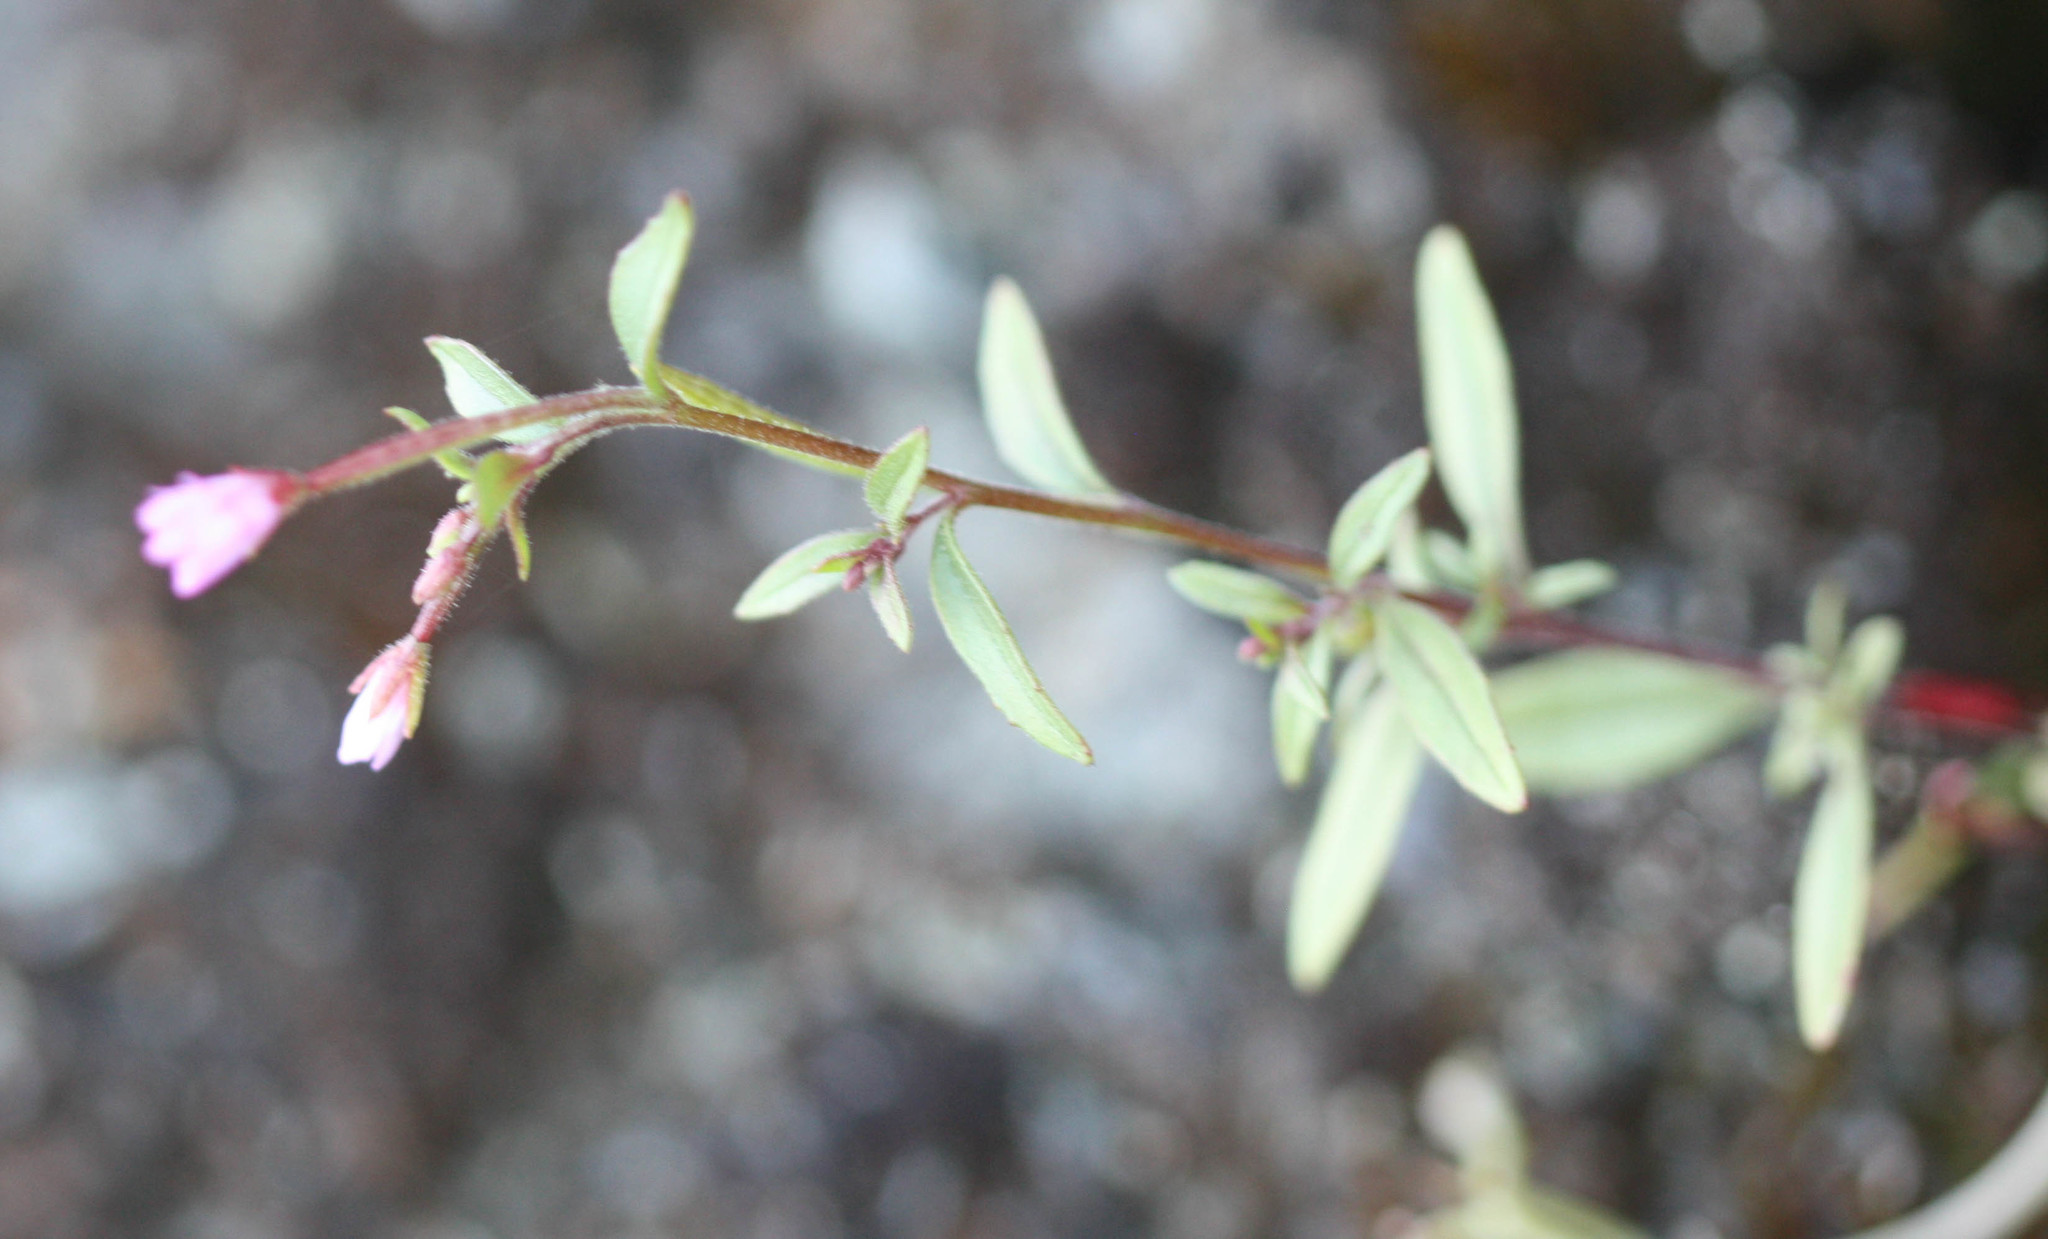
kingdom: Plantae
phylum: Tracheophyta
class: Magnoliopsida
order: Myrtales
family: Onagraceae
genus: Epilobium
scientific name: Epilobium minutum
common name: Chaparral willowherb
